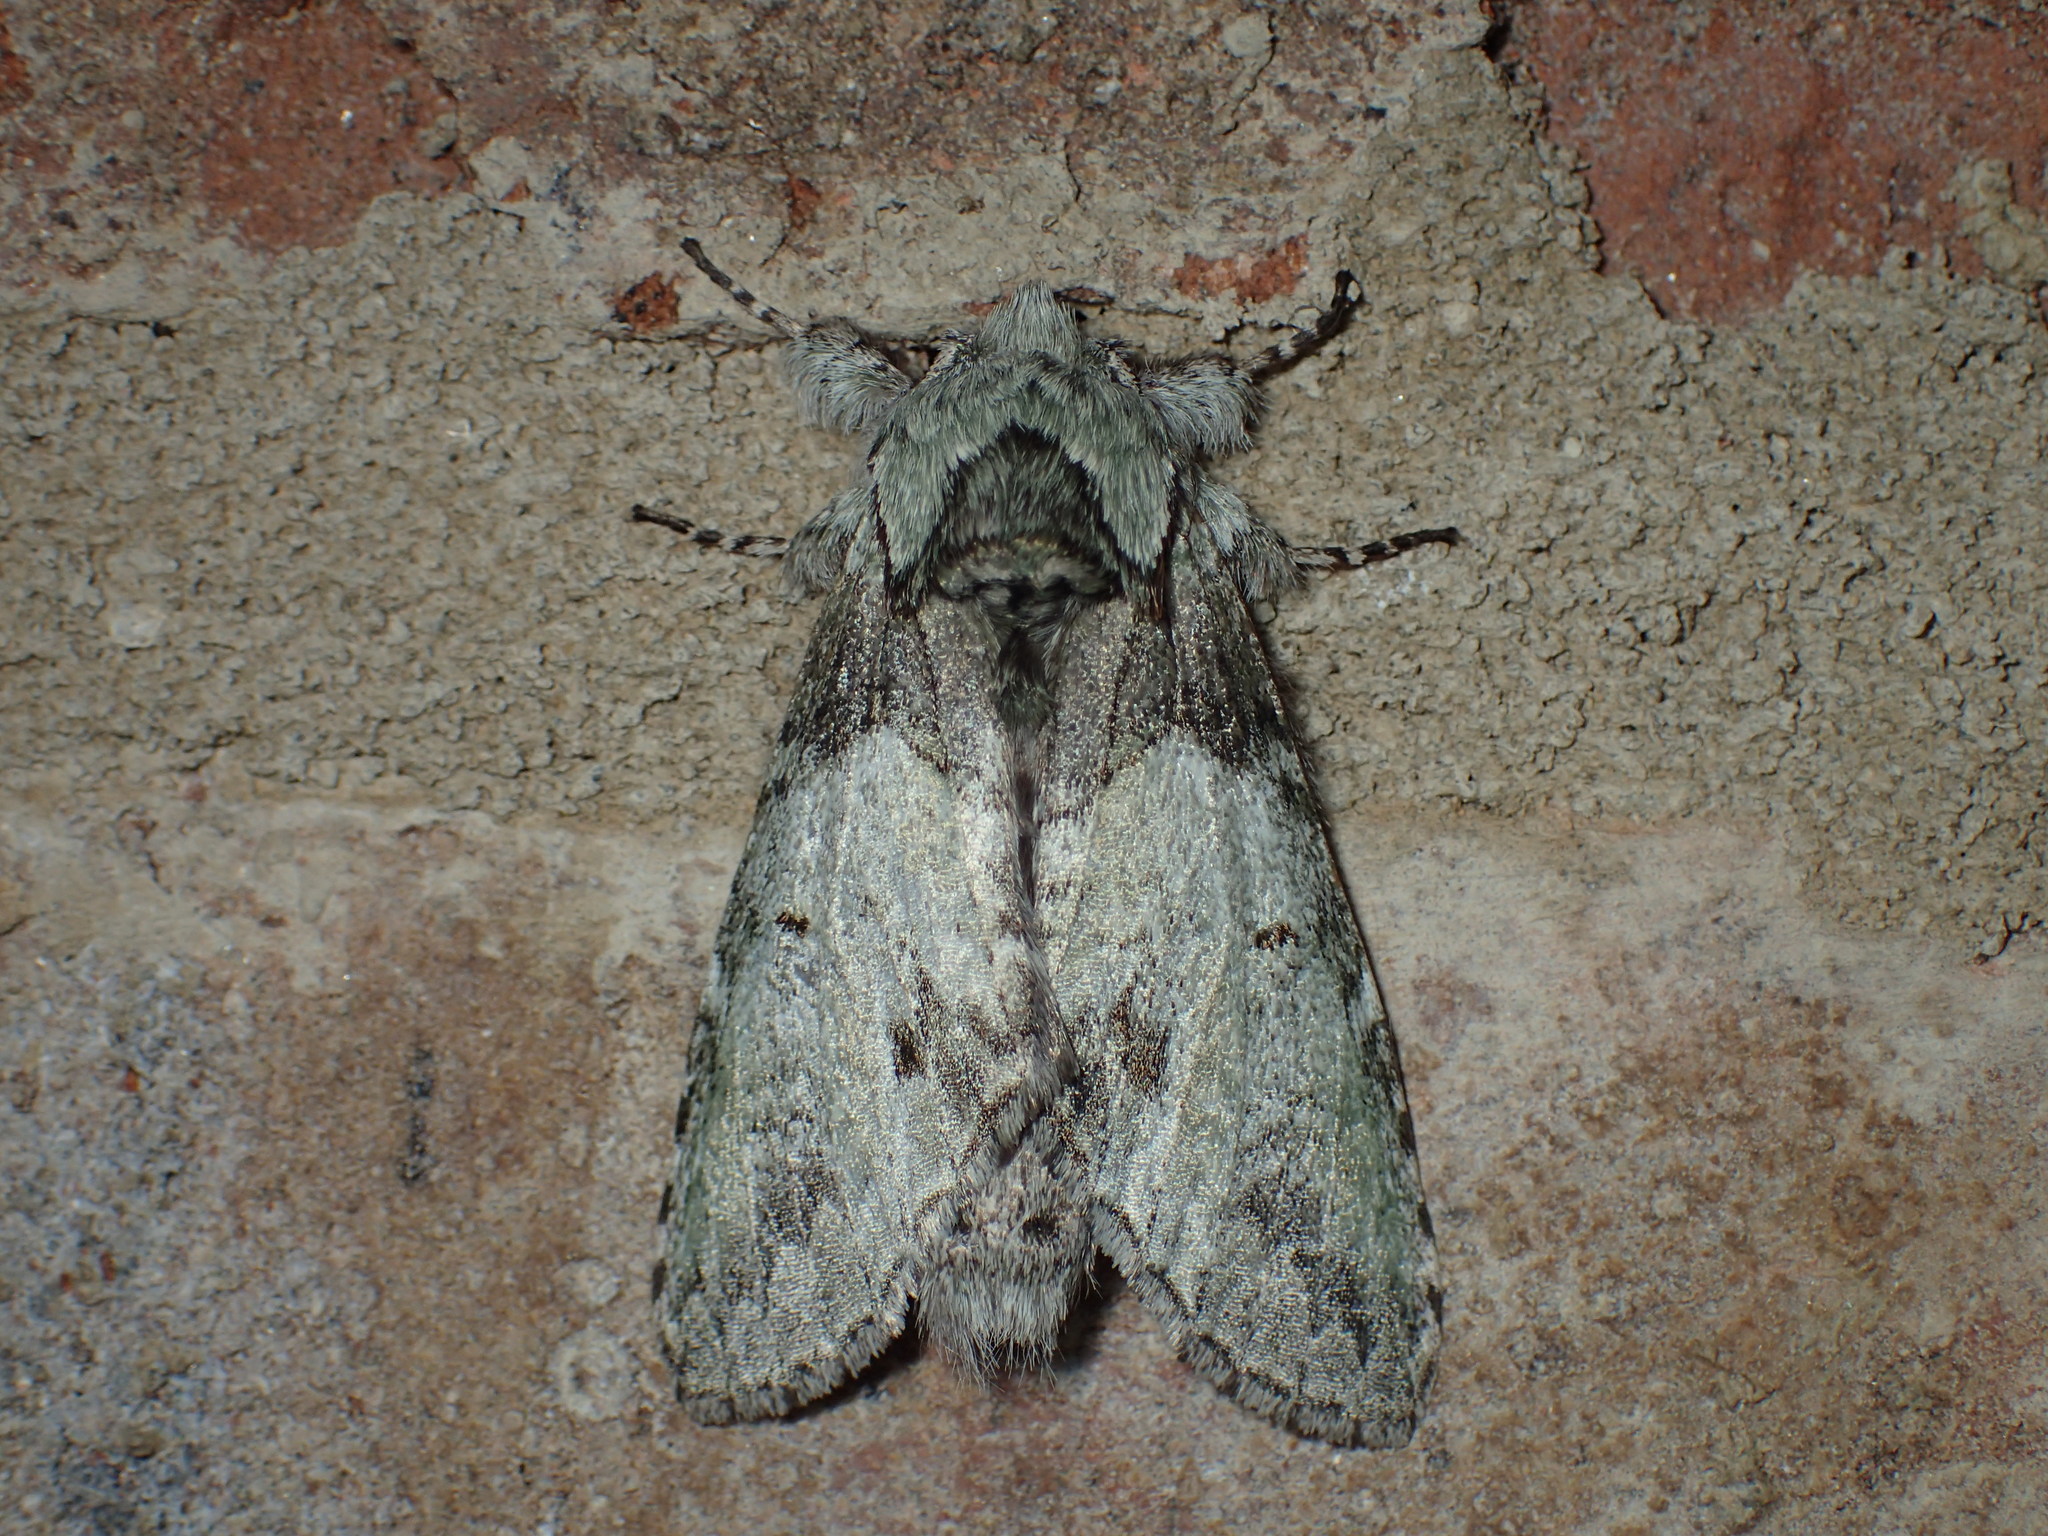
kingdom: Animalia
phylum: Arthropoda
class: Insecta
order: Lepidoptera
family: Notodontidae
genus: Macrurocampa
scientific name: Macrurocampa marthesia
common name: Mottled prominent
